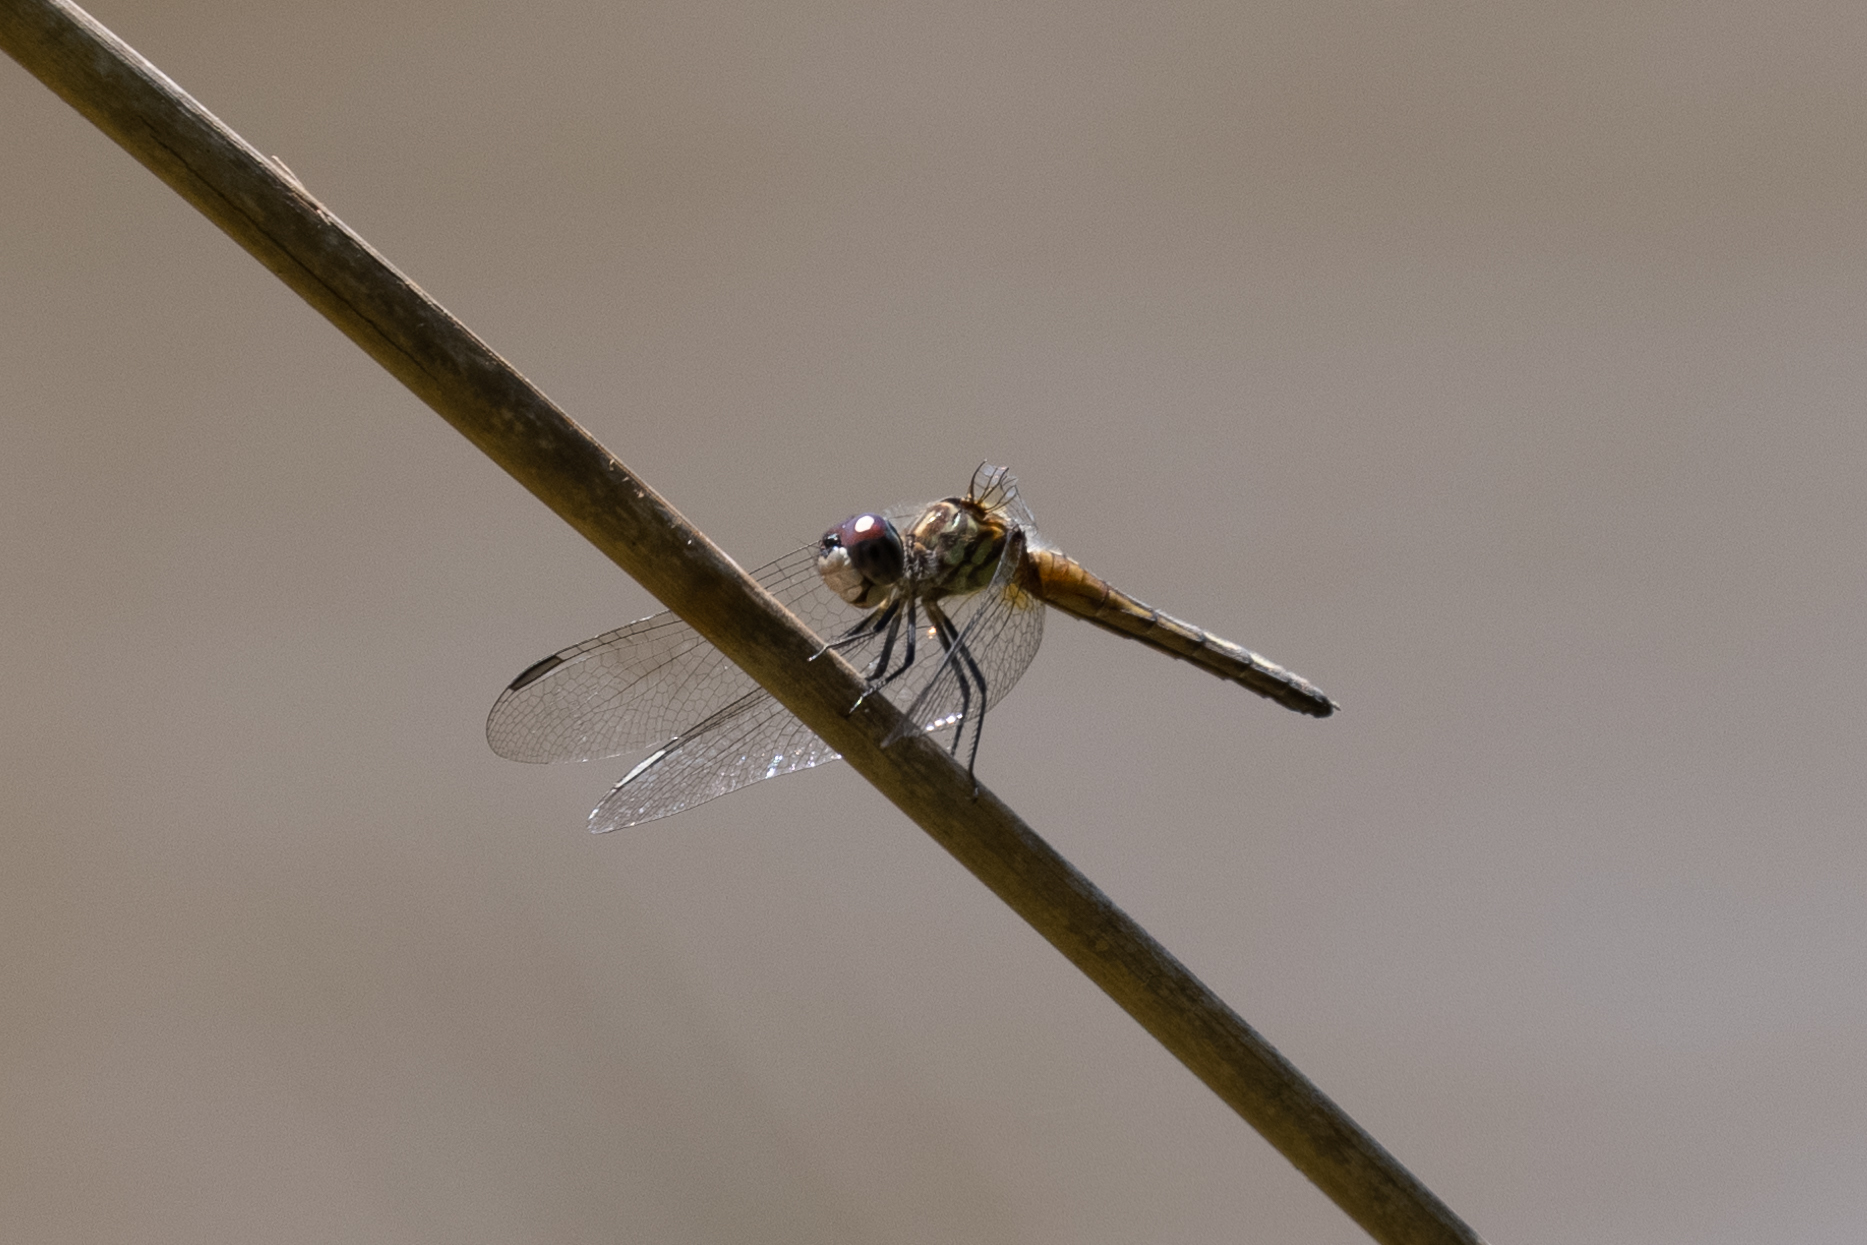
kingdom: Animalia
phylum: Arthropoda
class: Insecta
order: Odonata
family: Libellulidae
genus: Pachydiplax
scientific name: Pachydiplax longipennis
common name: Blue dasher
